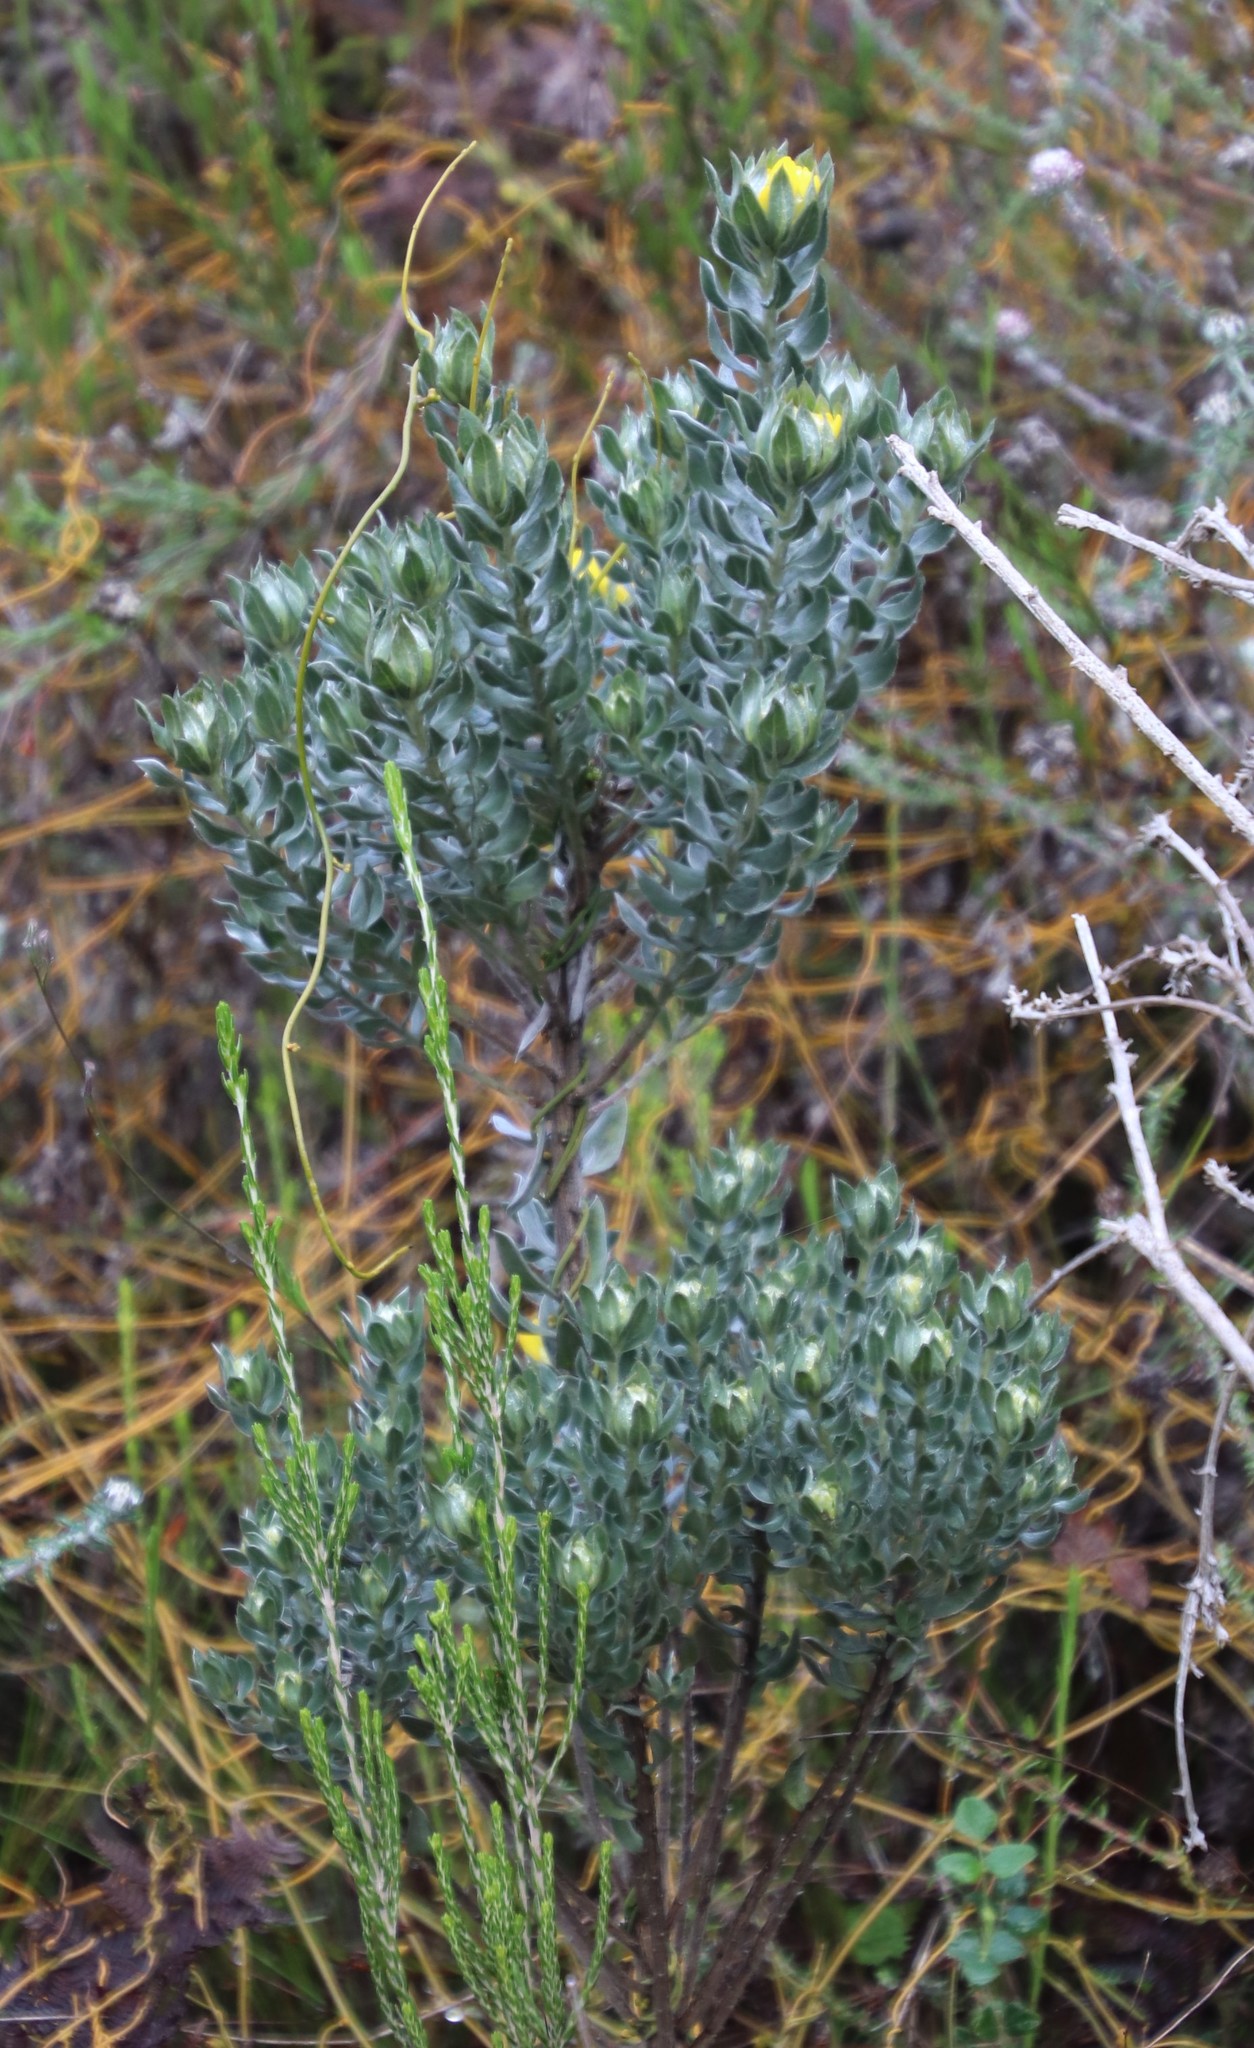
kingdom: Plantae
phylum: Tracheophyta
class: Magnoliopsida
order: Fabales
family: Fabaceae
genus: Xiphotheca
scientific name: Xiphotheca fruticosa
